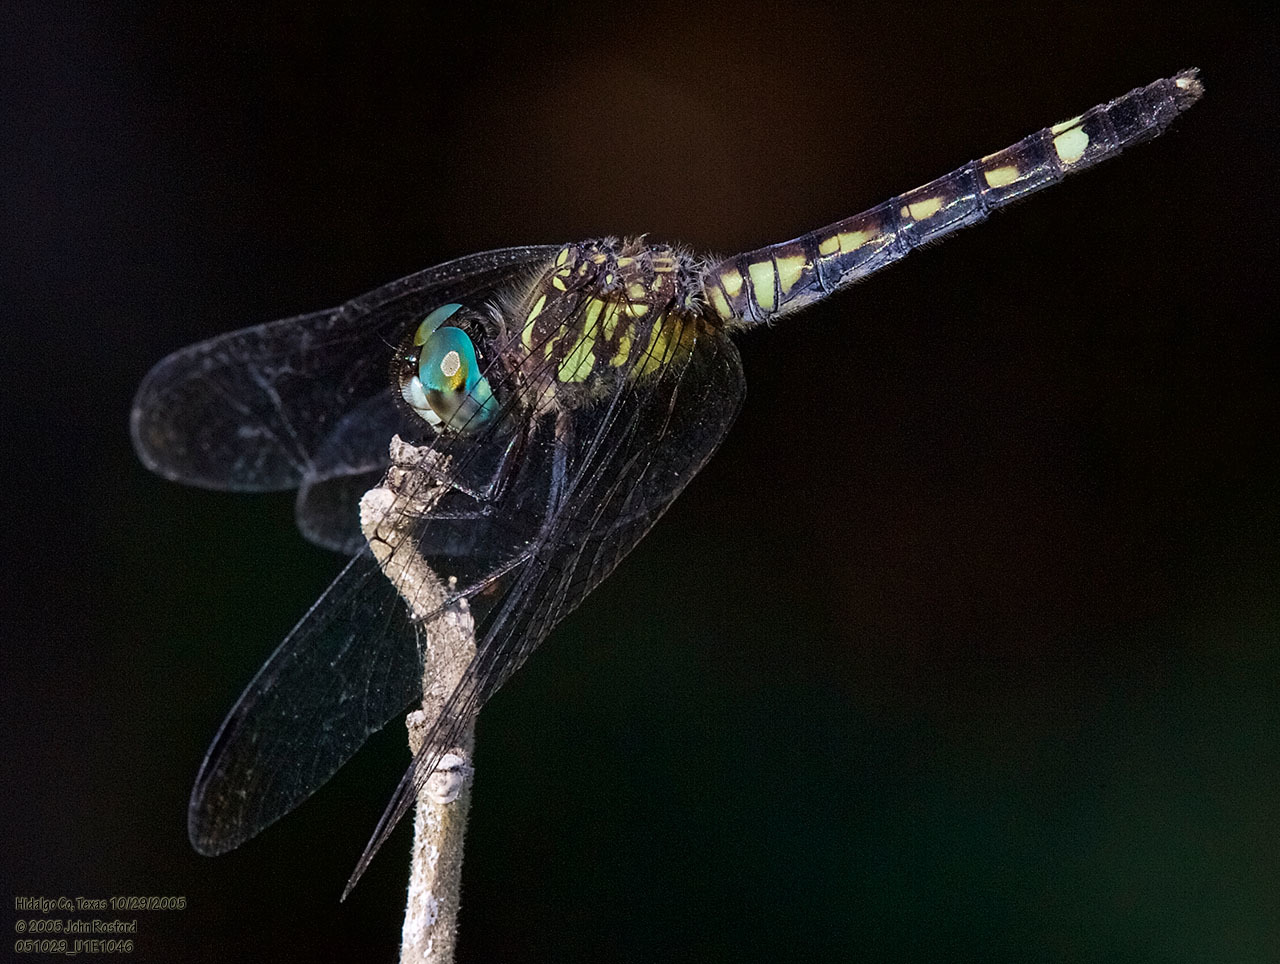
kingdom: Animalia
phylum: Arthropoda
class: Insecta
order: Odonata
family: Libellulidae
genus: Micrathyria
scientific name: Micrathyria hagenii
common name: Thornbush dasher
